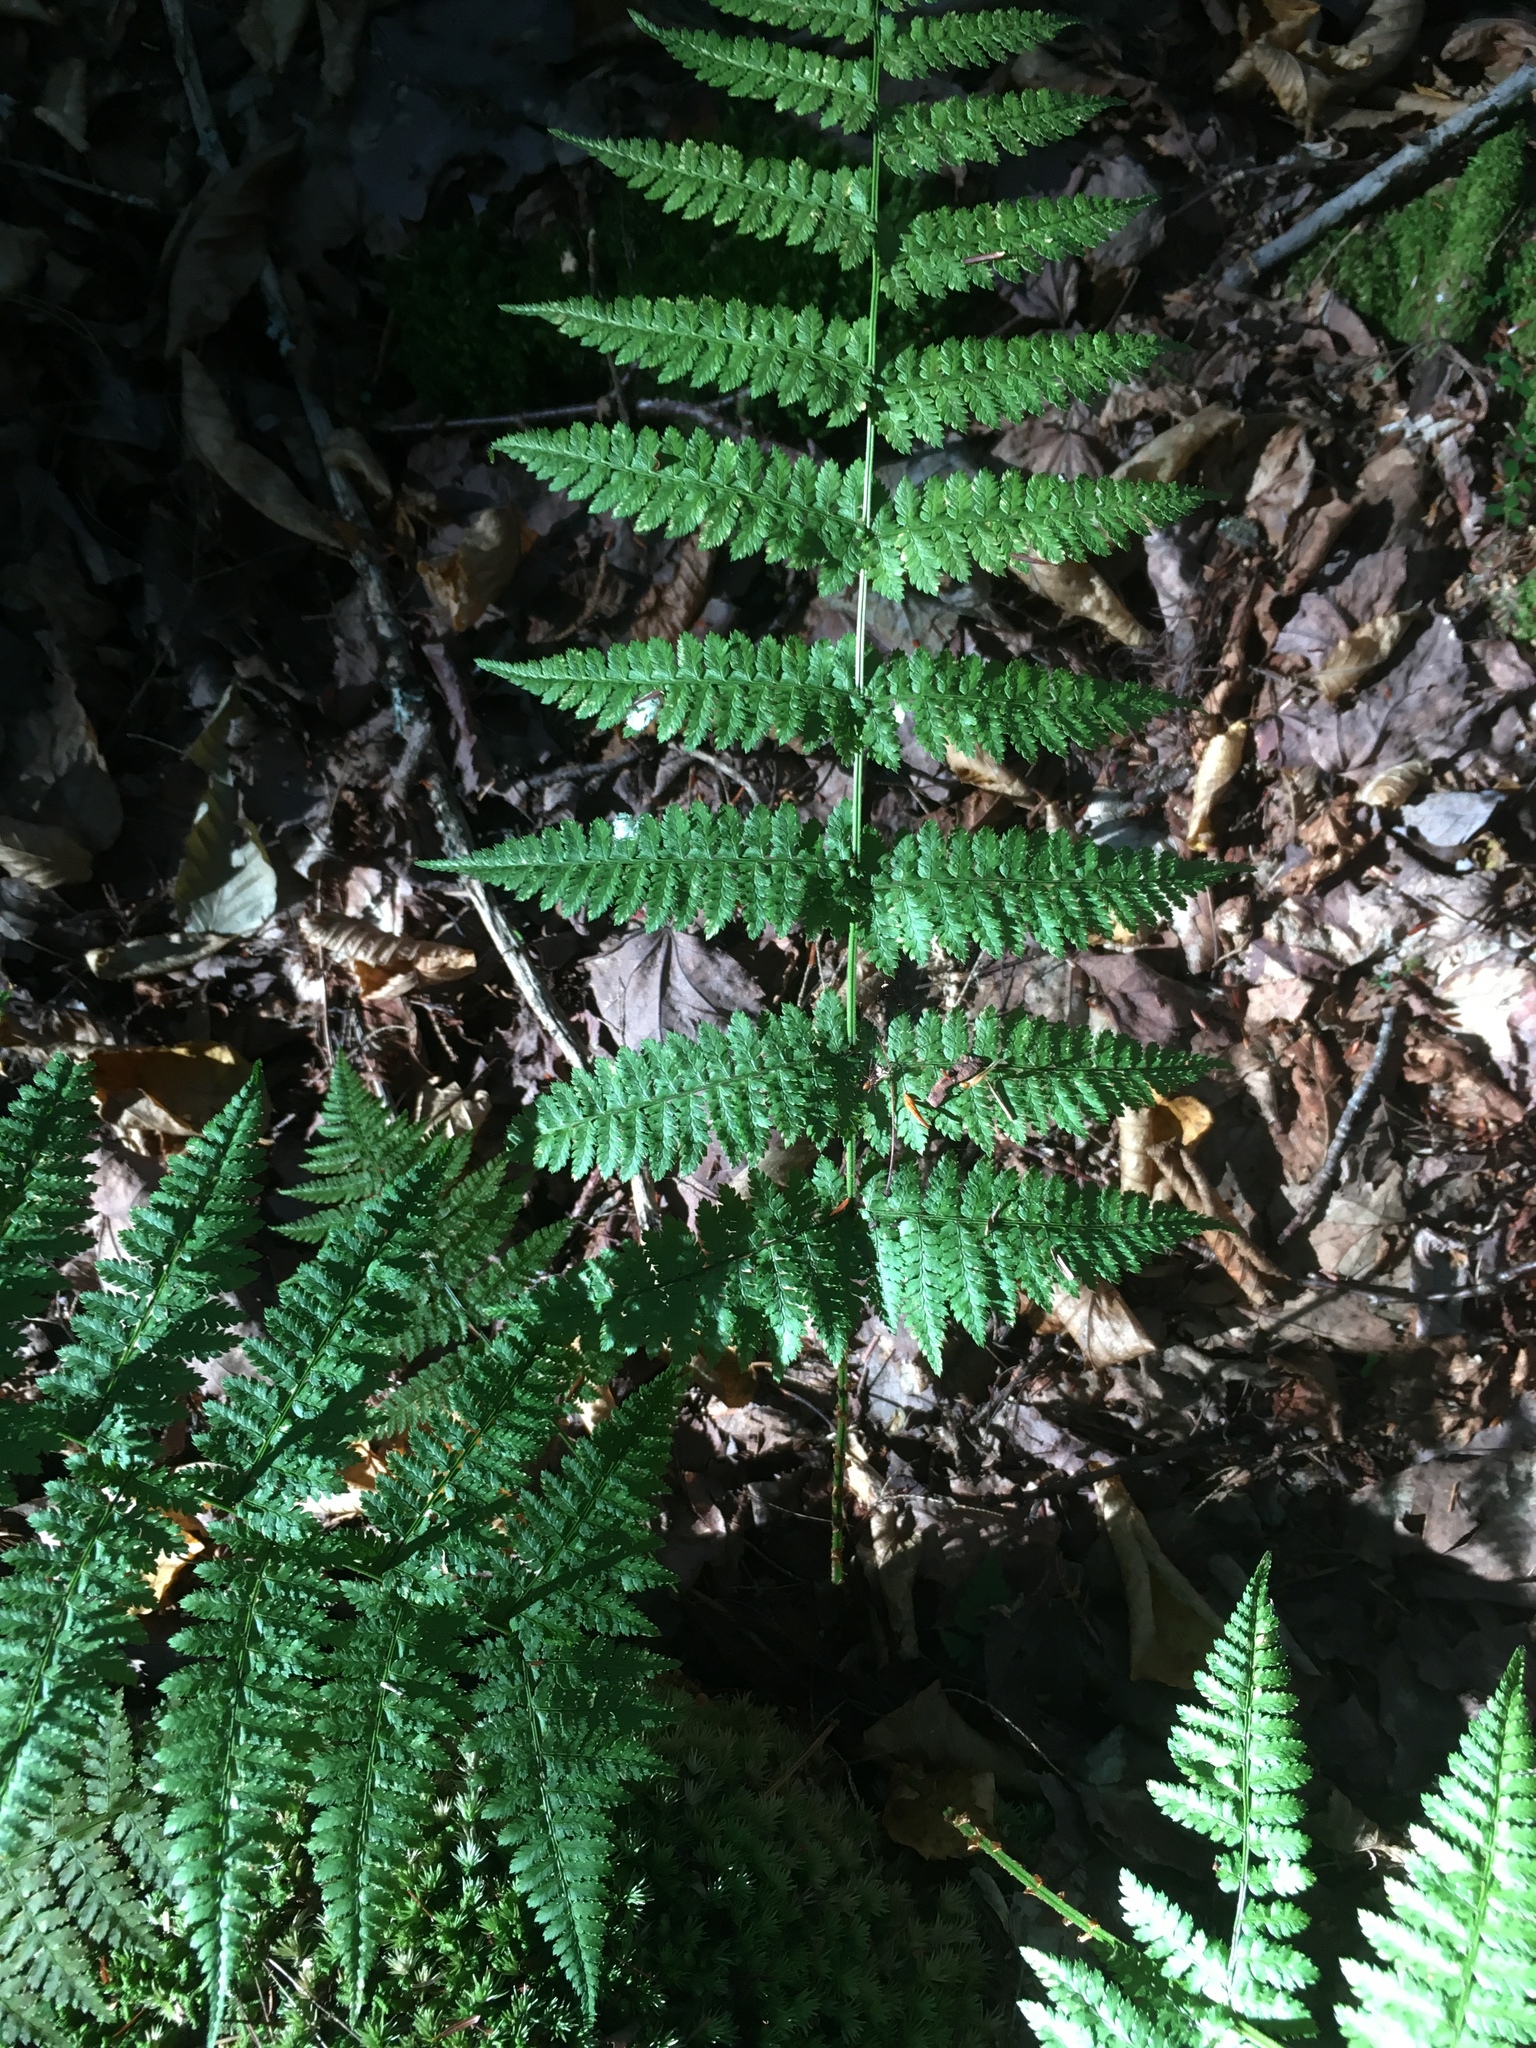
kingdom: Plantae
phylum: Tracheophyta
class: Polypodiopsida
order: Polypodiales
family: Dryopteridaceae
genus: Dryopteris
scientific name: Dryopteris intermedia
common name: Evergreen wood fern
